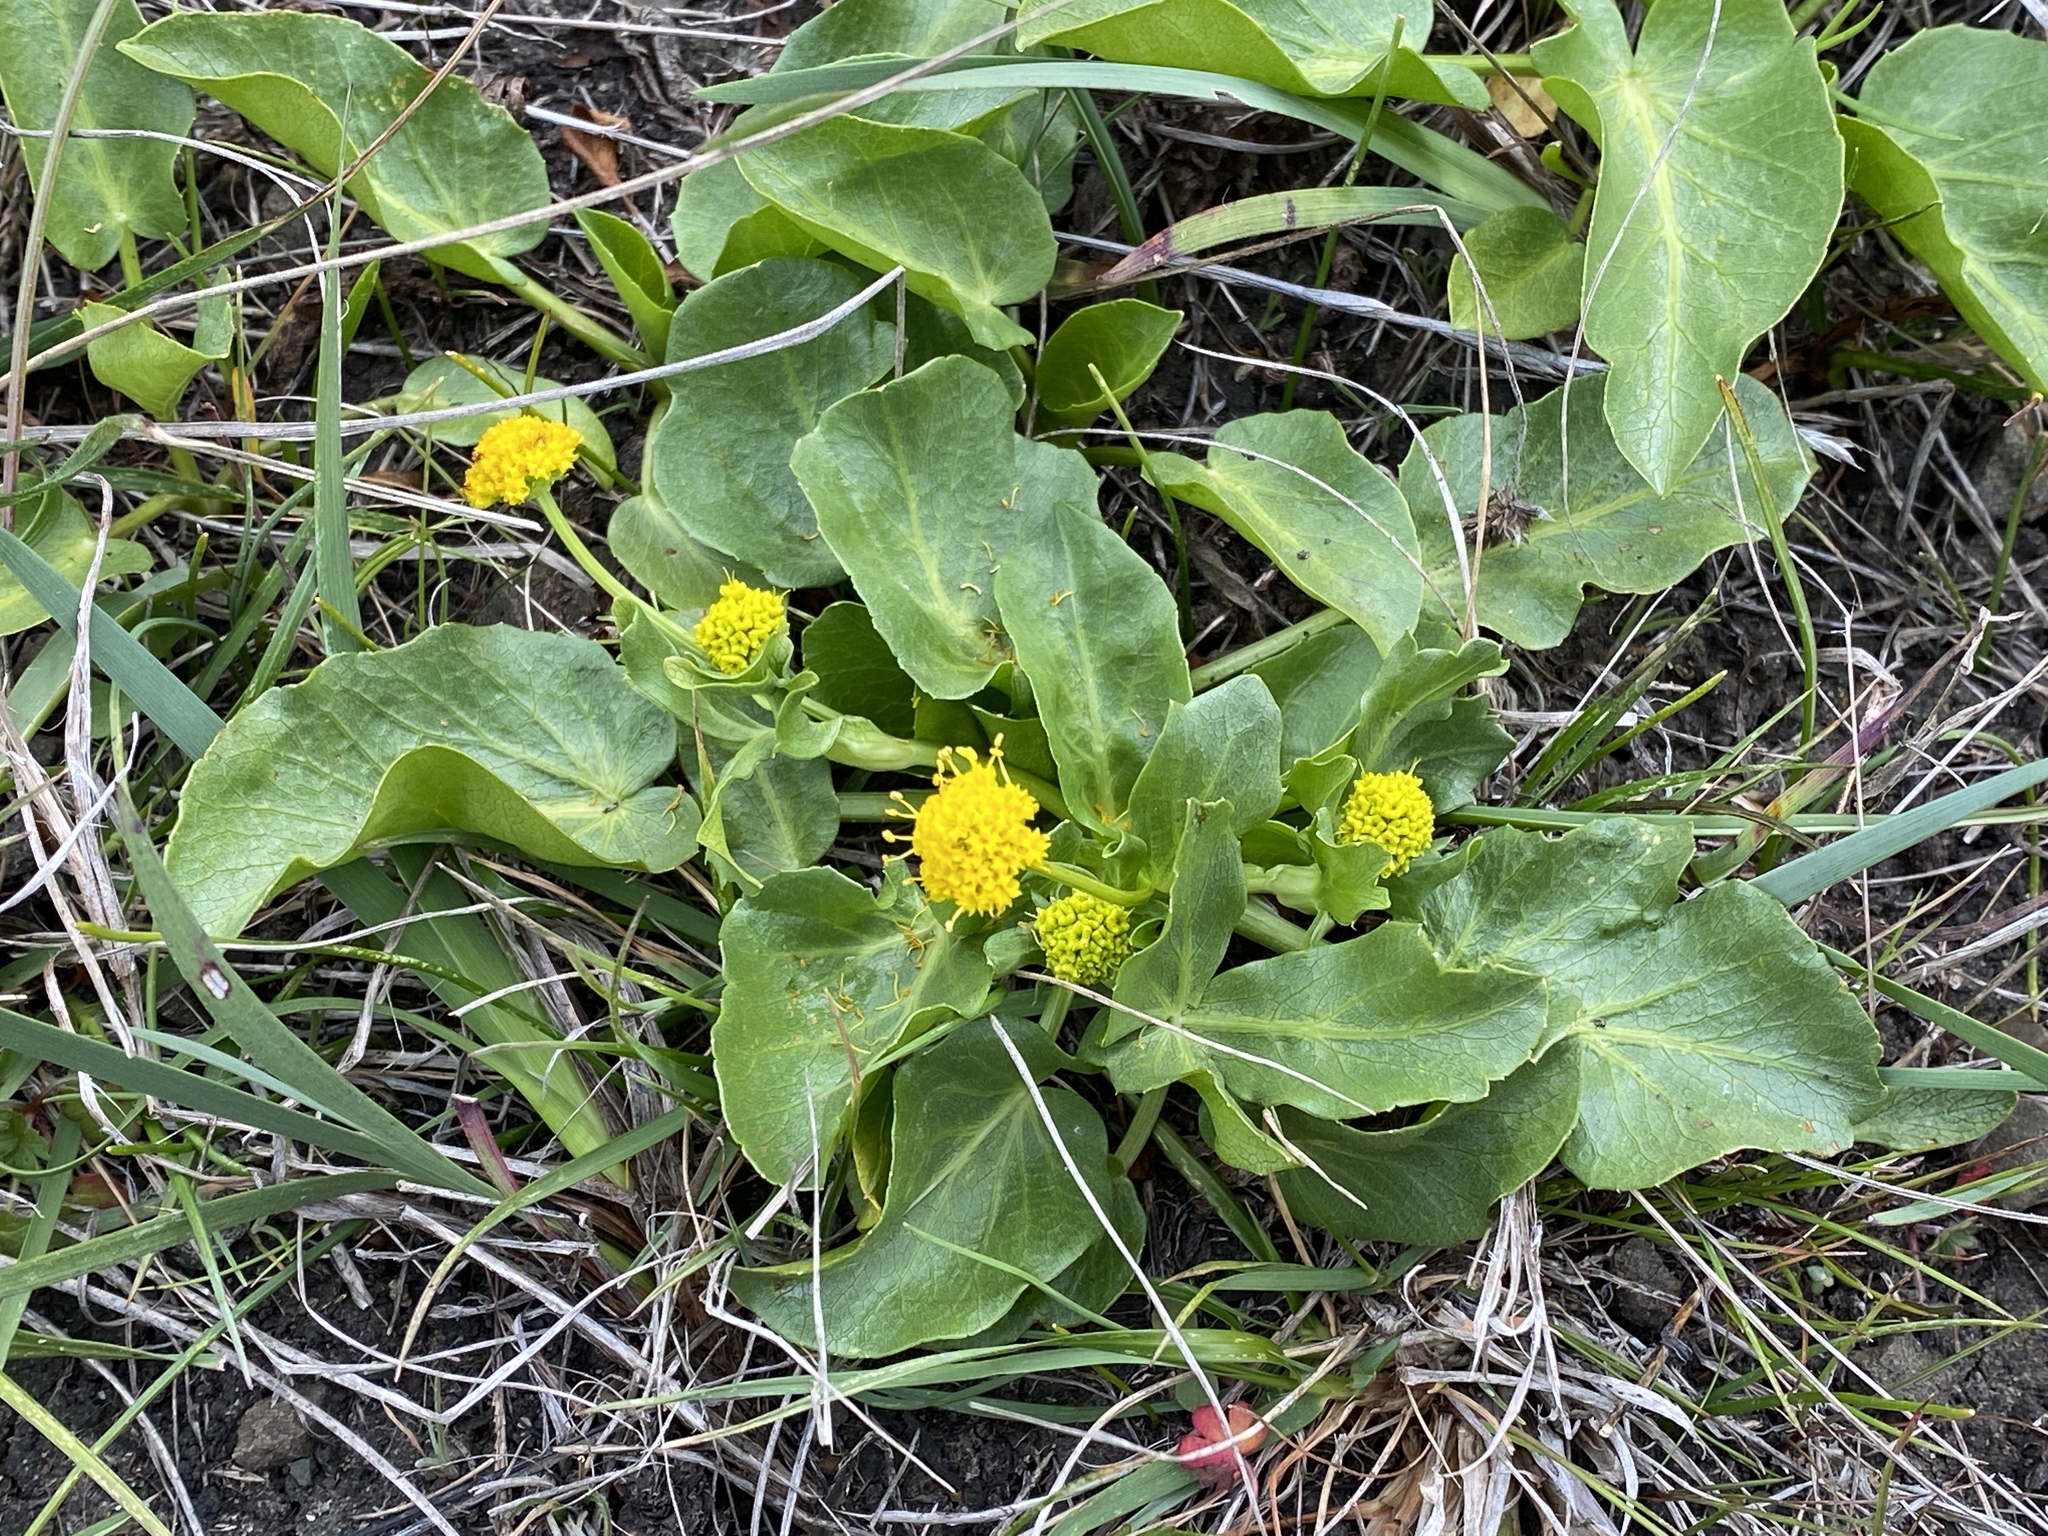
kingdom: Plantae
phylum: Tracheophyta
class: Magnoliopsida
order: Apiales
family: Apiaceae
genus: Sanicula
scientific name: Sanicula maritima
